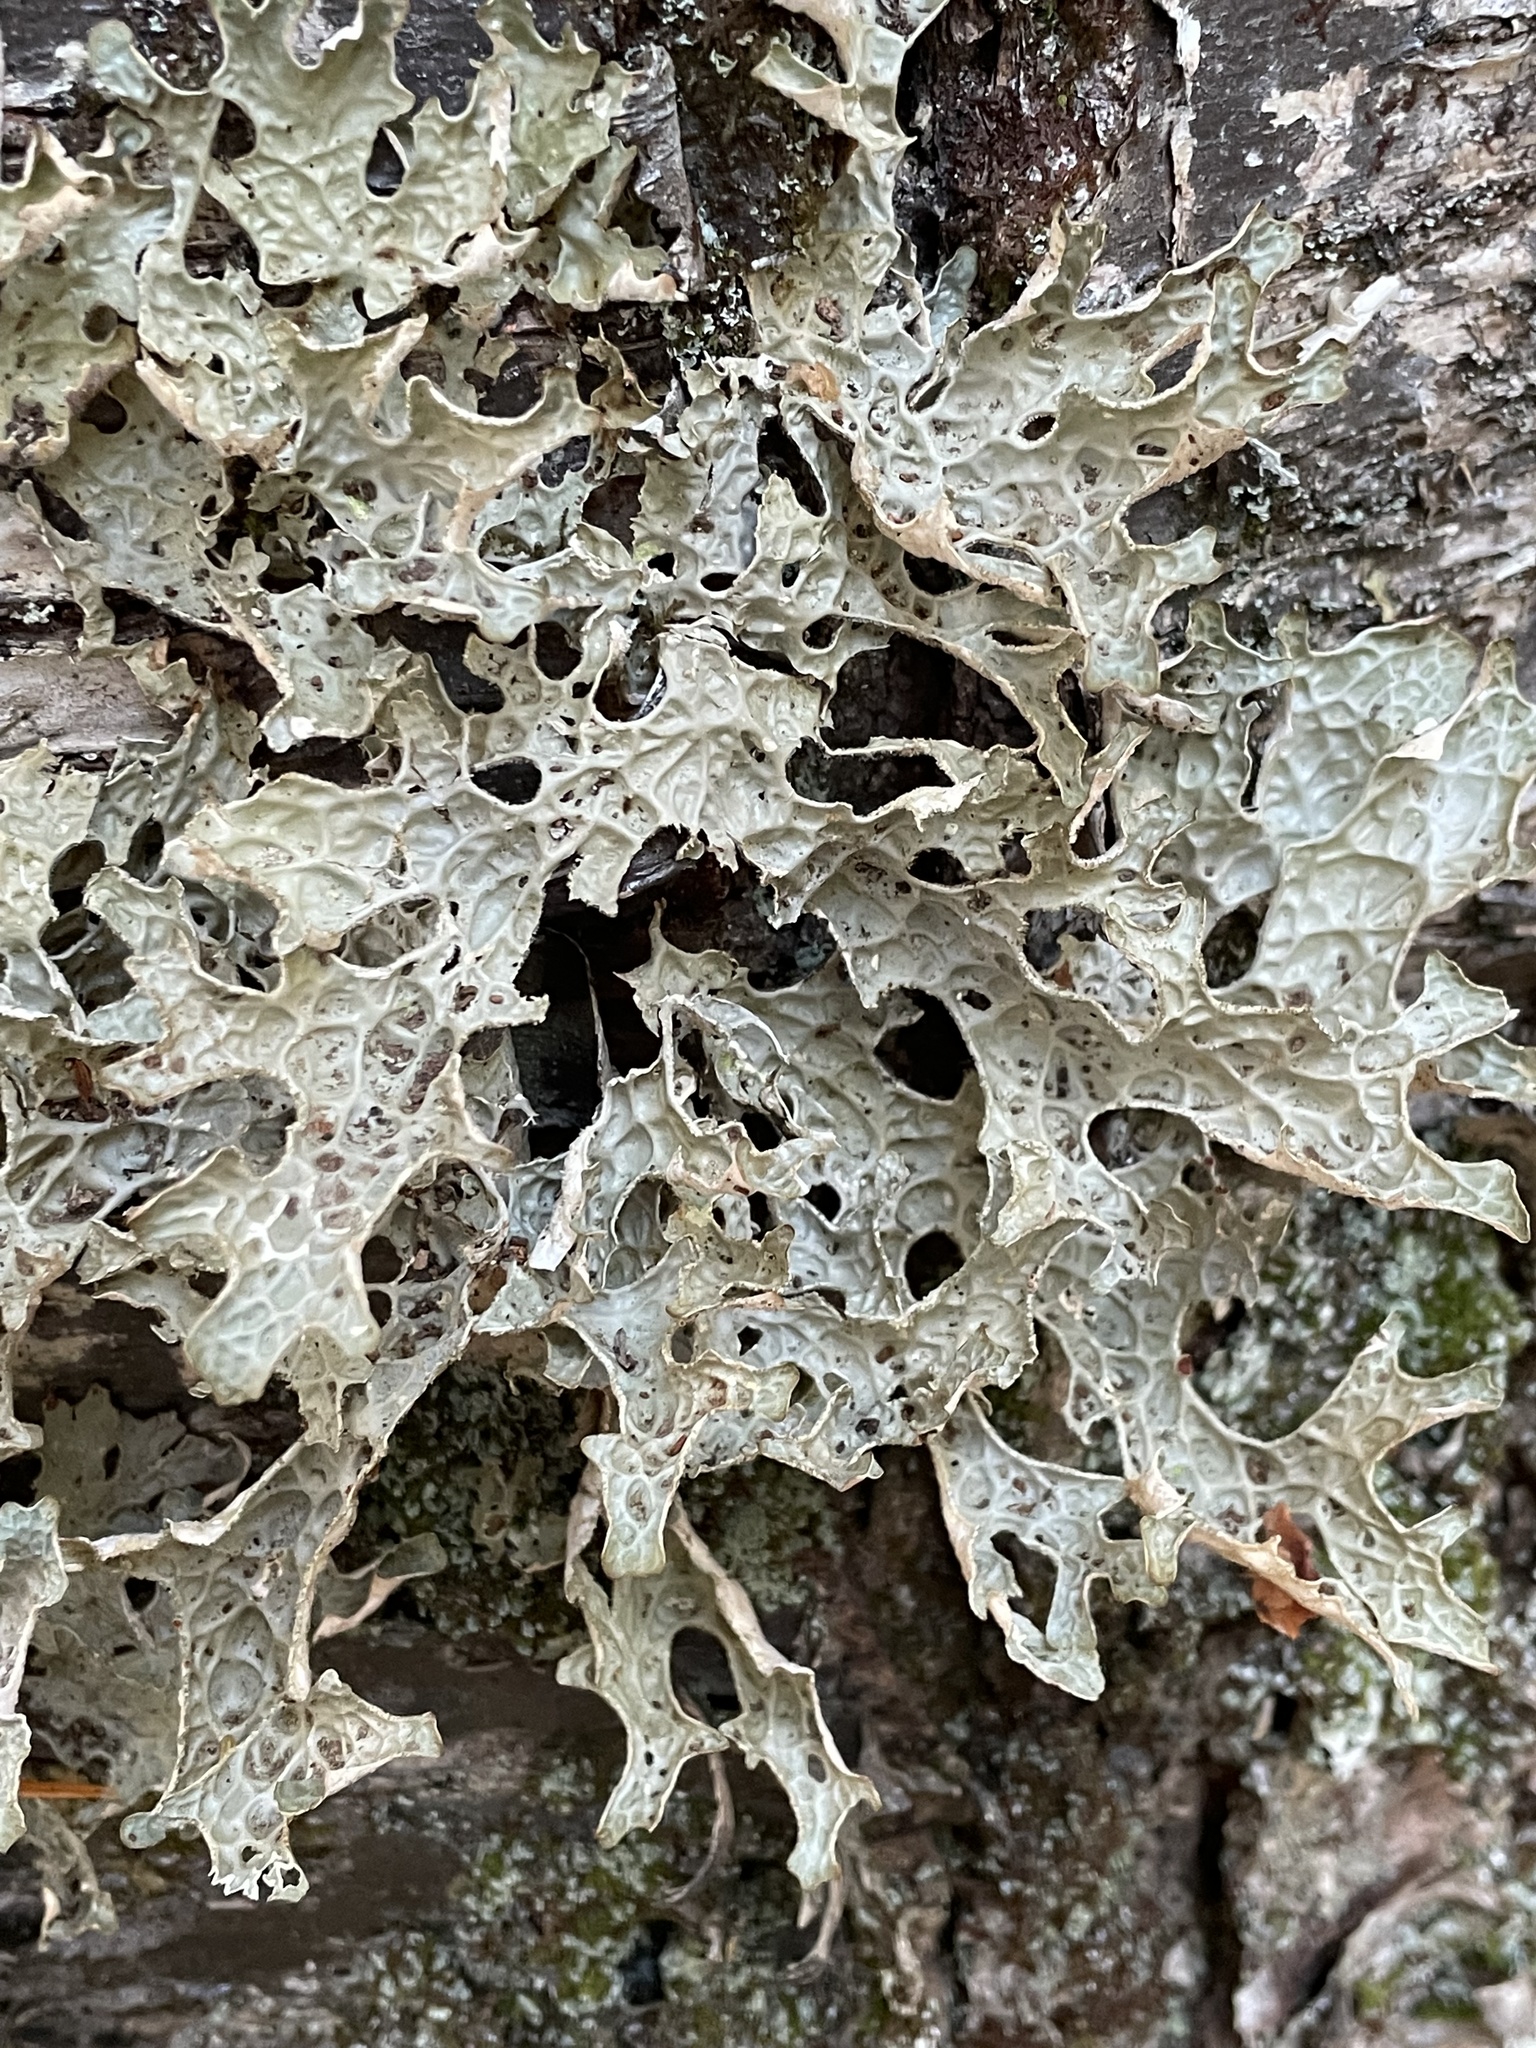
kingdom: Fungi
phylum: Ascomycota
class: Lecanoromycetes
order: Peltigerales
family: Lobariaceae
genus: Lobaria
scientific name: Lobaria pulmonaria
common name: Lungwort
